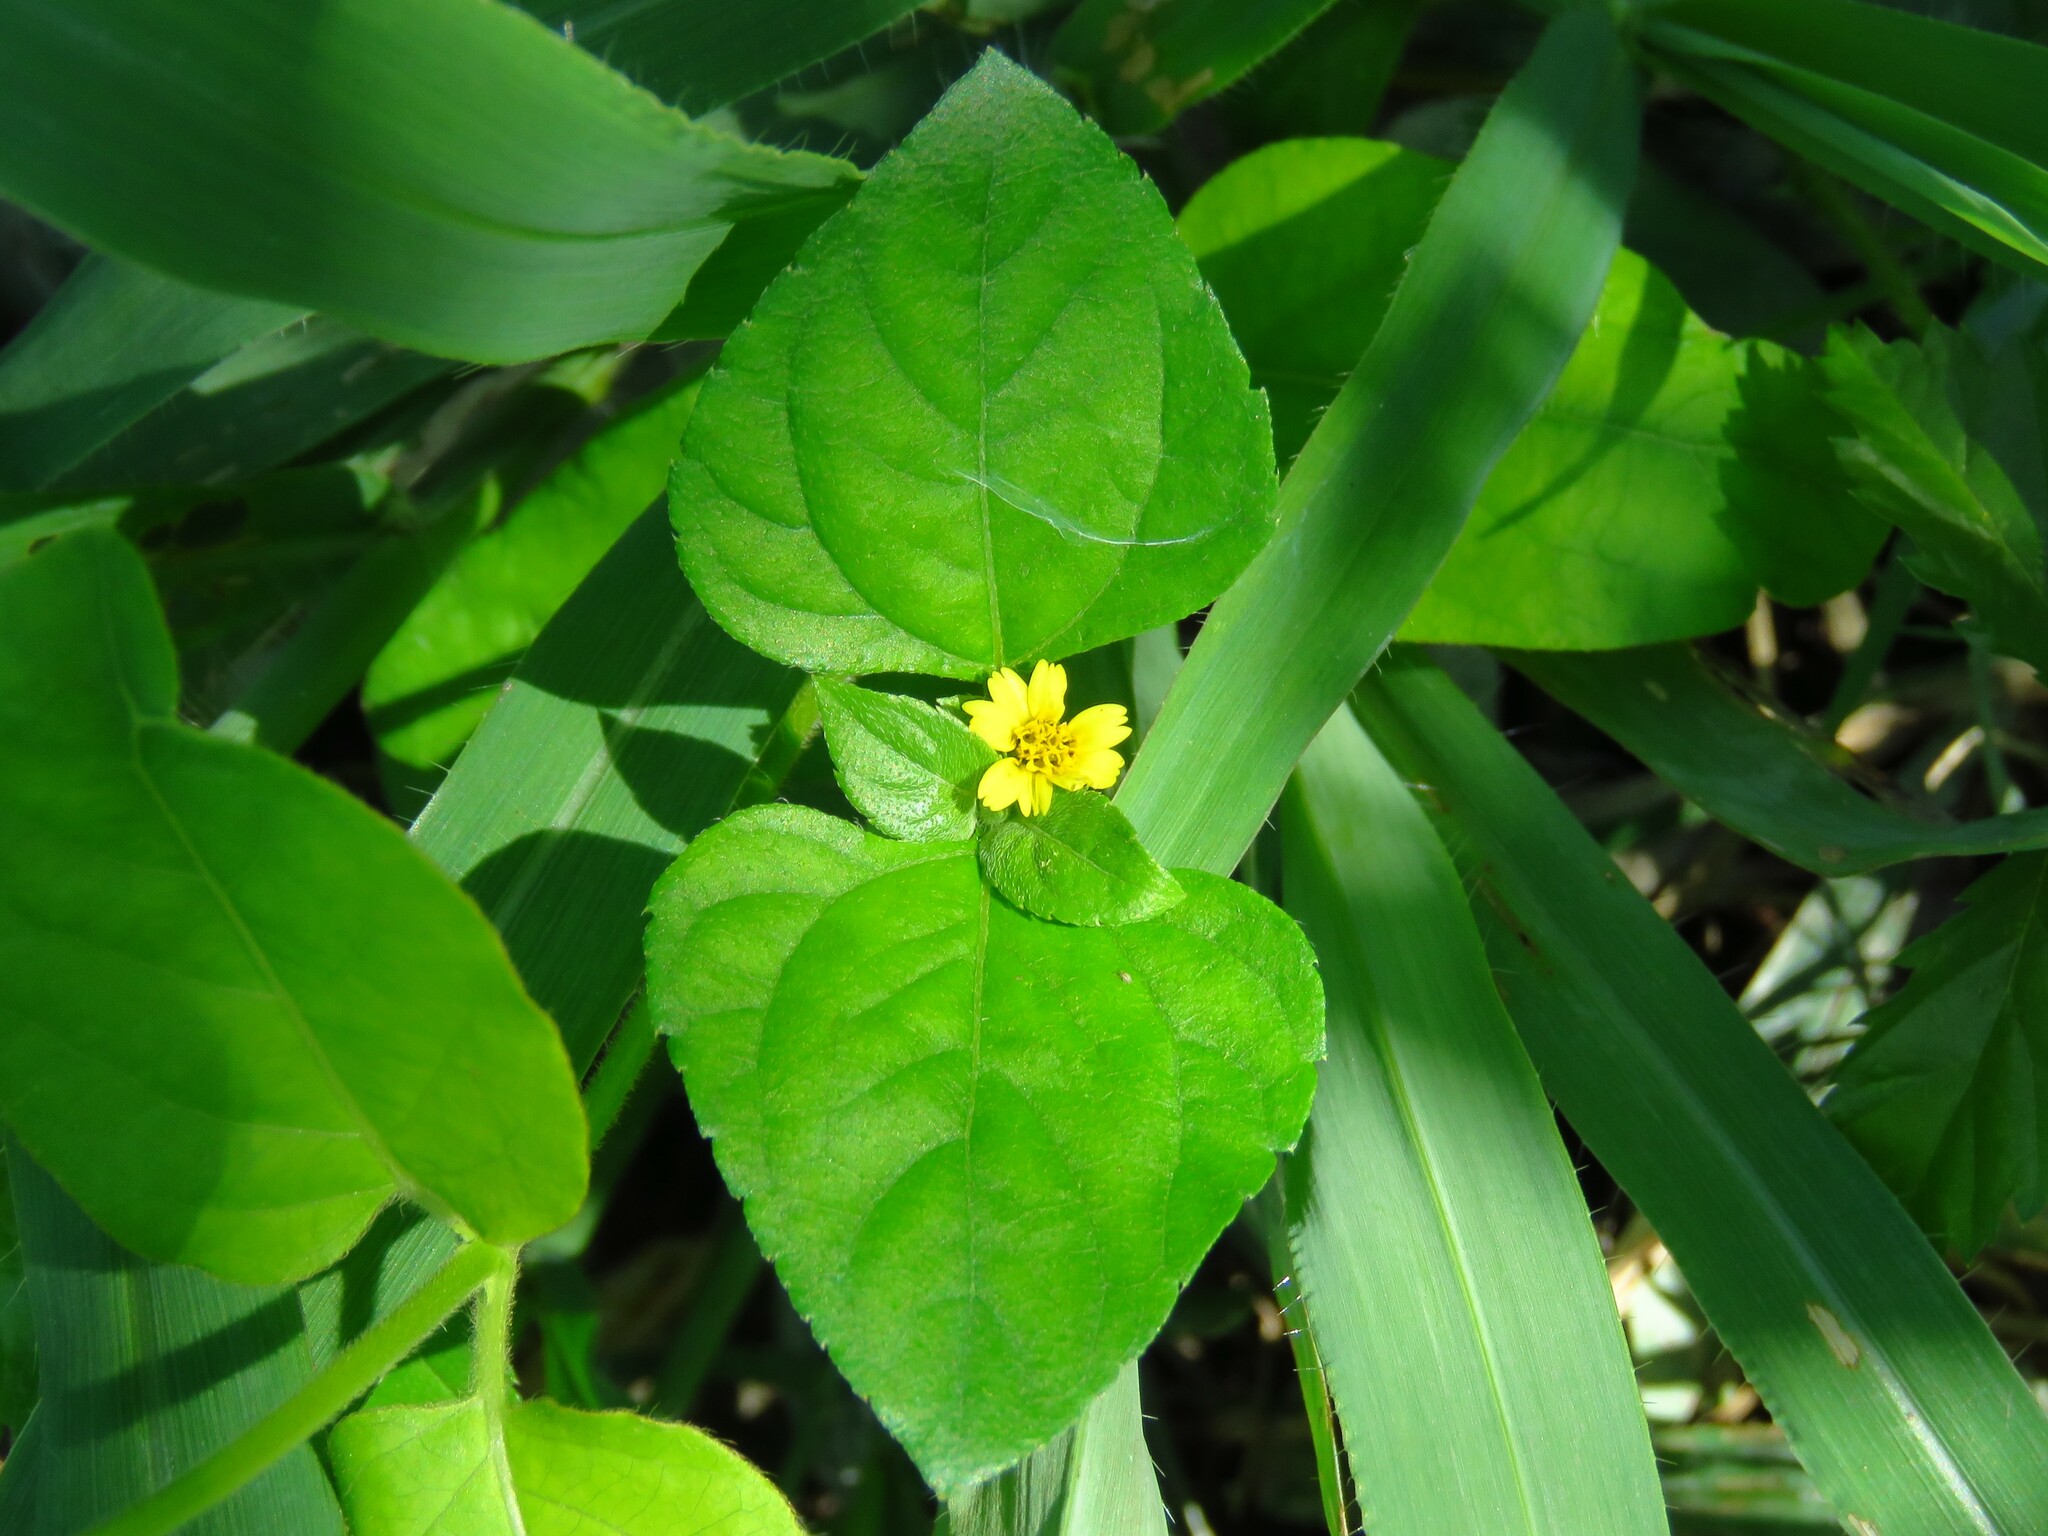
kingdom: Plantae
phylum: Tracheophyta
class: Magnoliopsida
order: Asterales
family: Asteraceae
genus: Calyptocarpus
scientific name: Calyptocarpus vialis
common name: Straggler daisy
